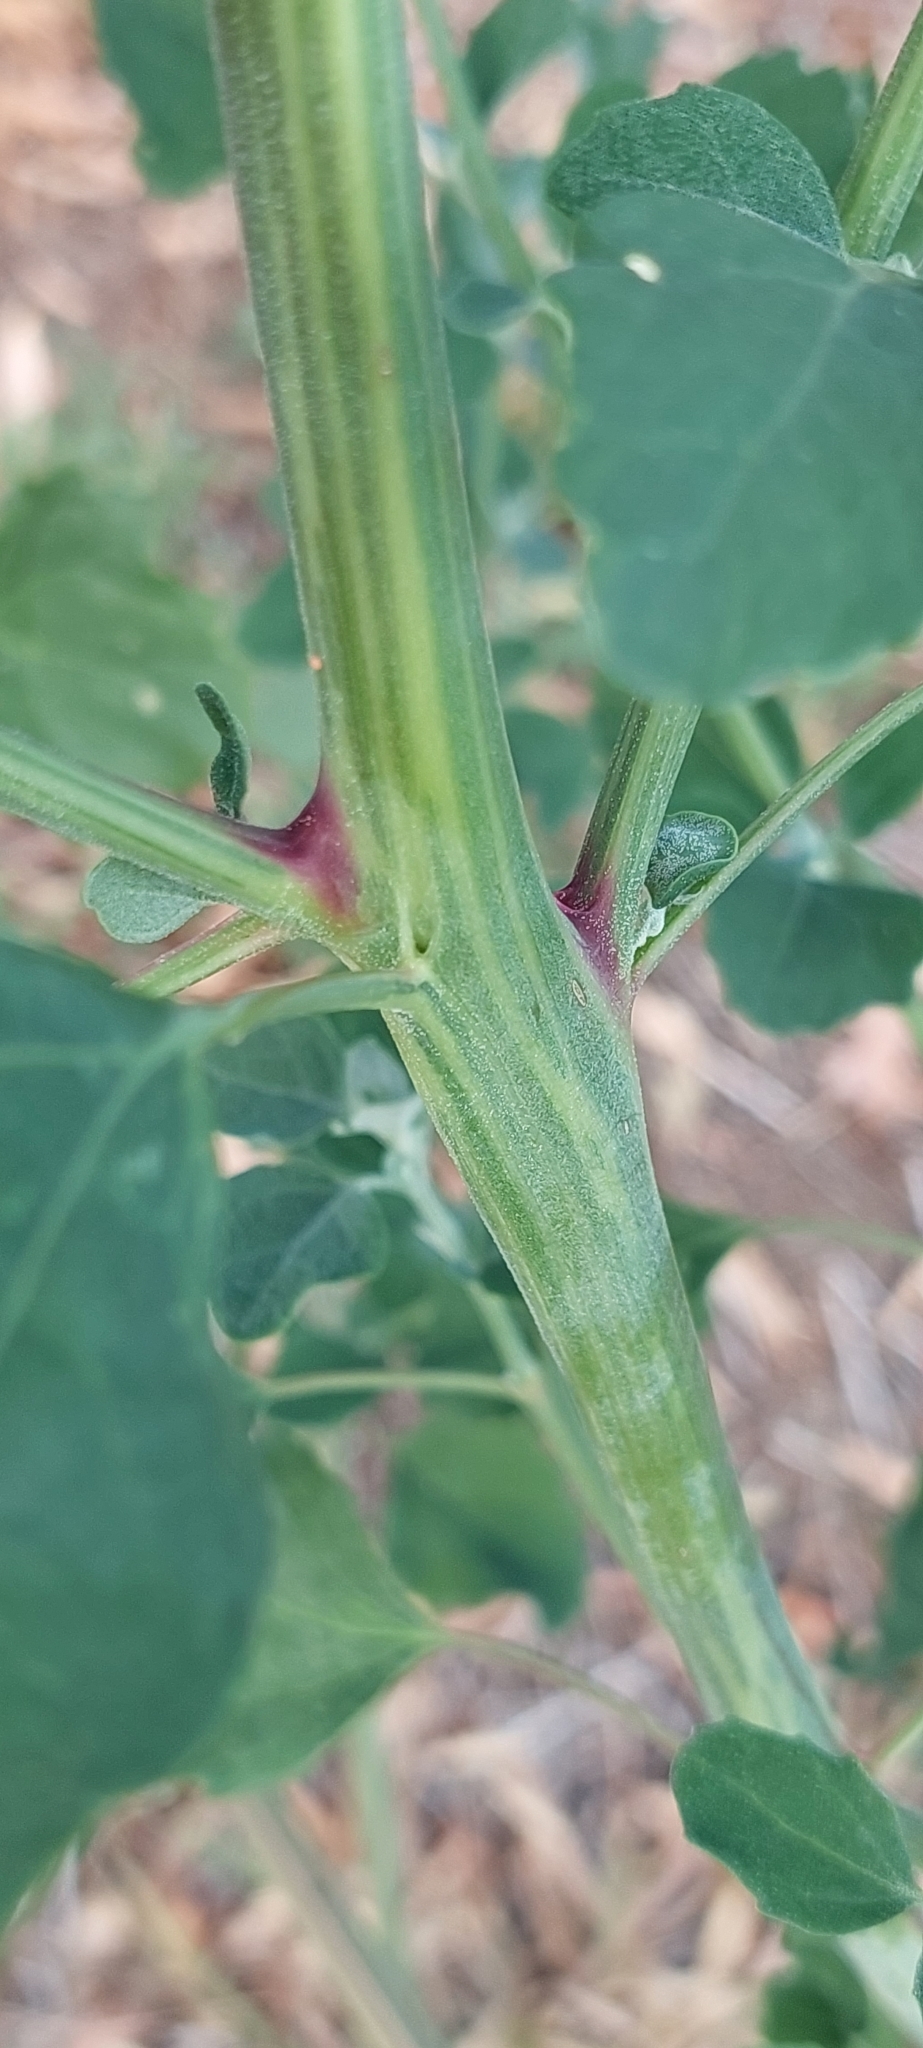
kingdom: Plantae
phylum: Tracheophyta
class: Magnoliopsida
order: Caryophyllales
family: Amaranthaceae
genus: Chenopodium
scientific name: Chenopodium album
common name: Fat-hen
